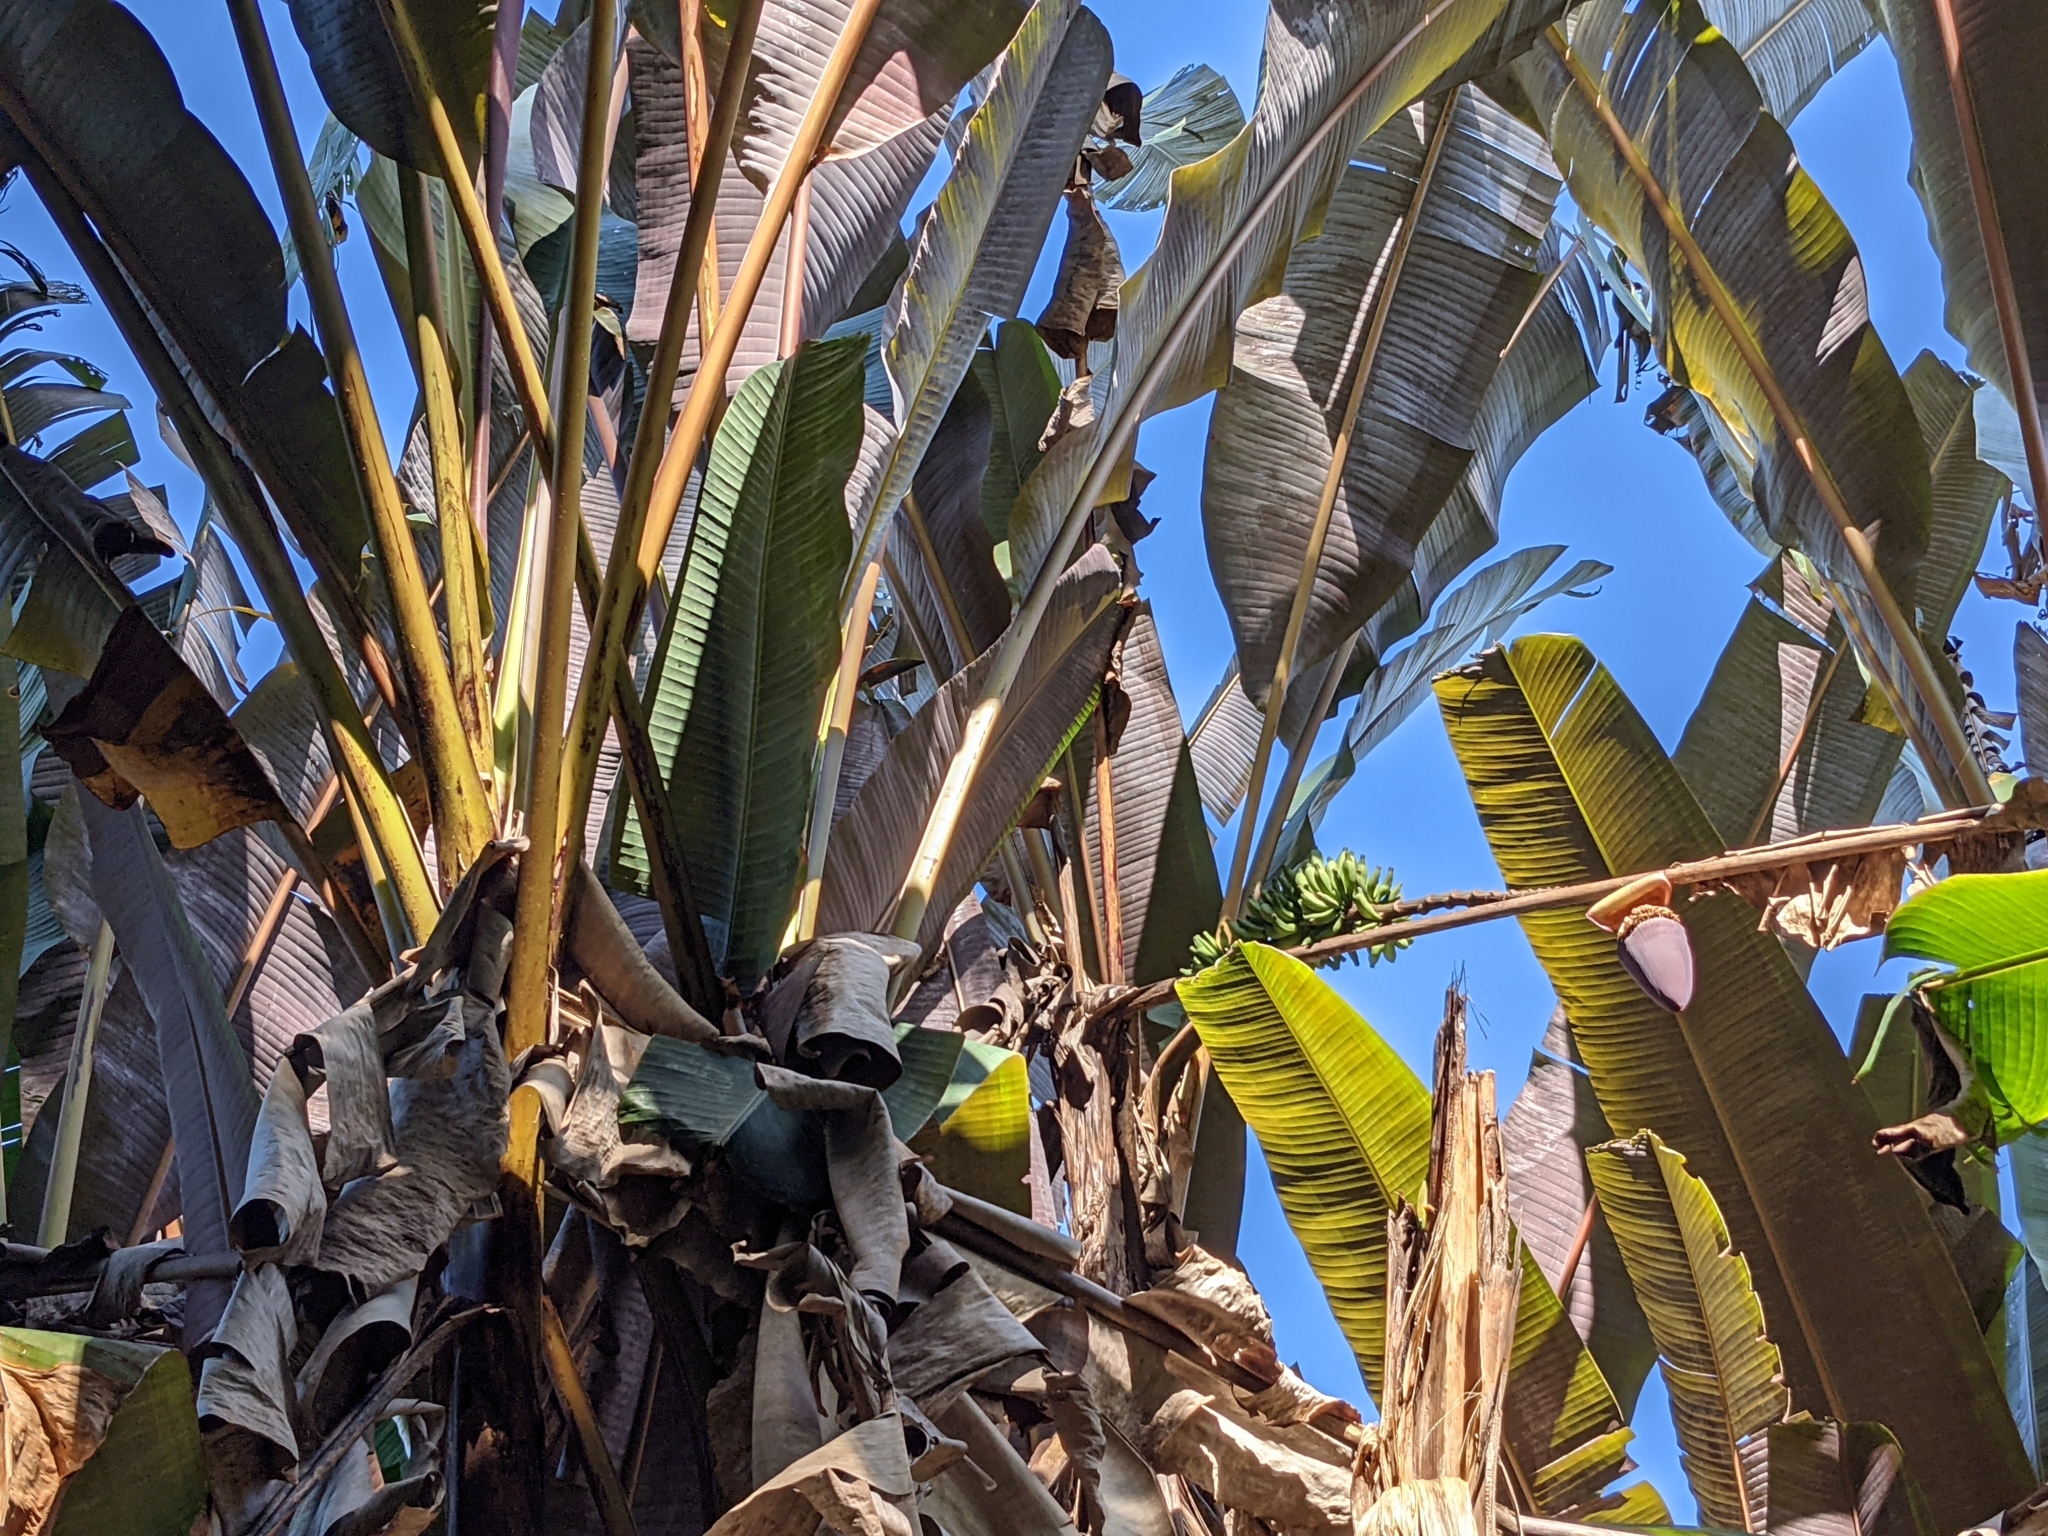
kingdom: Plantae
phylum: Tracheophyta
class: Liliopsida
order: Zingiberales
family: Musaceae
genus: Musa
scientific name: Musa acuminata
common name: Edible banana
